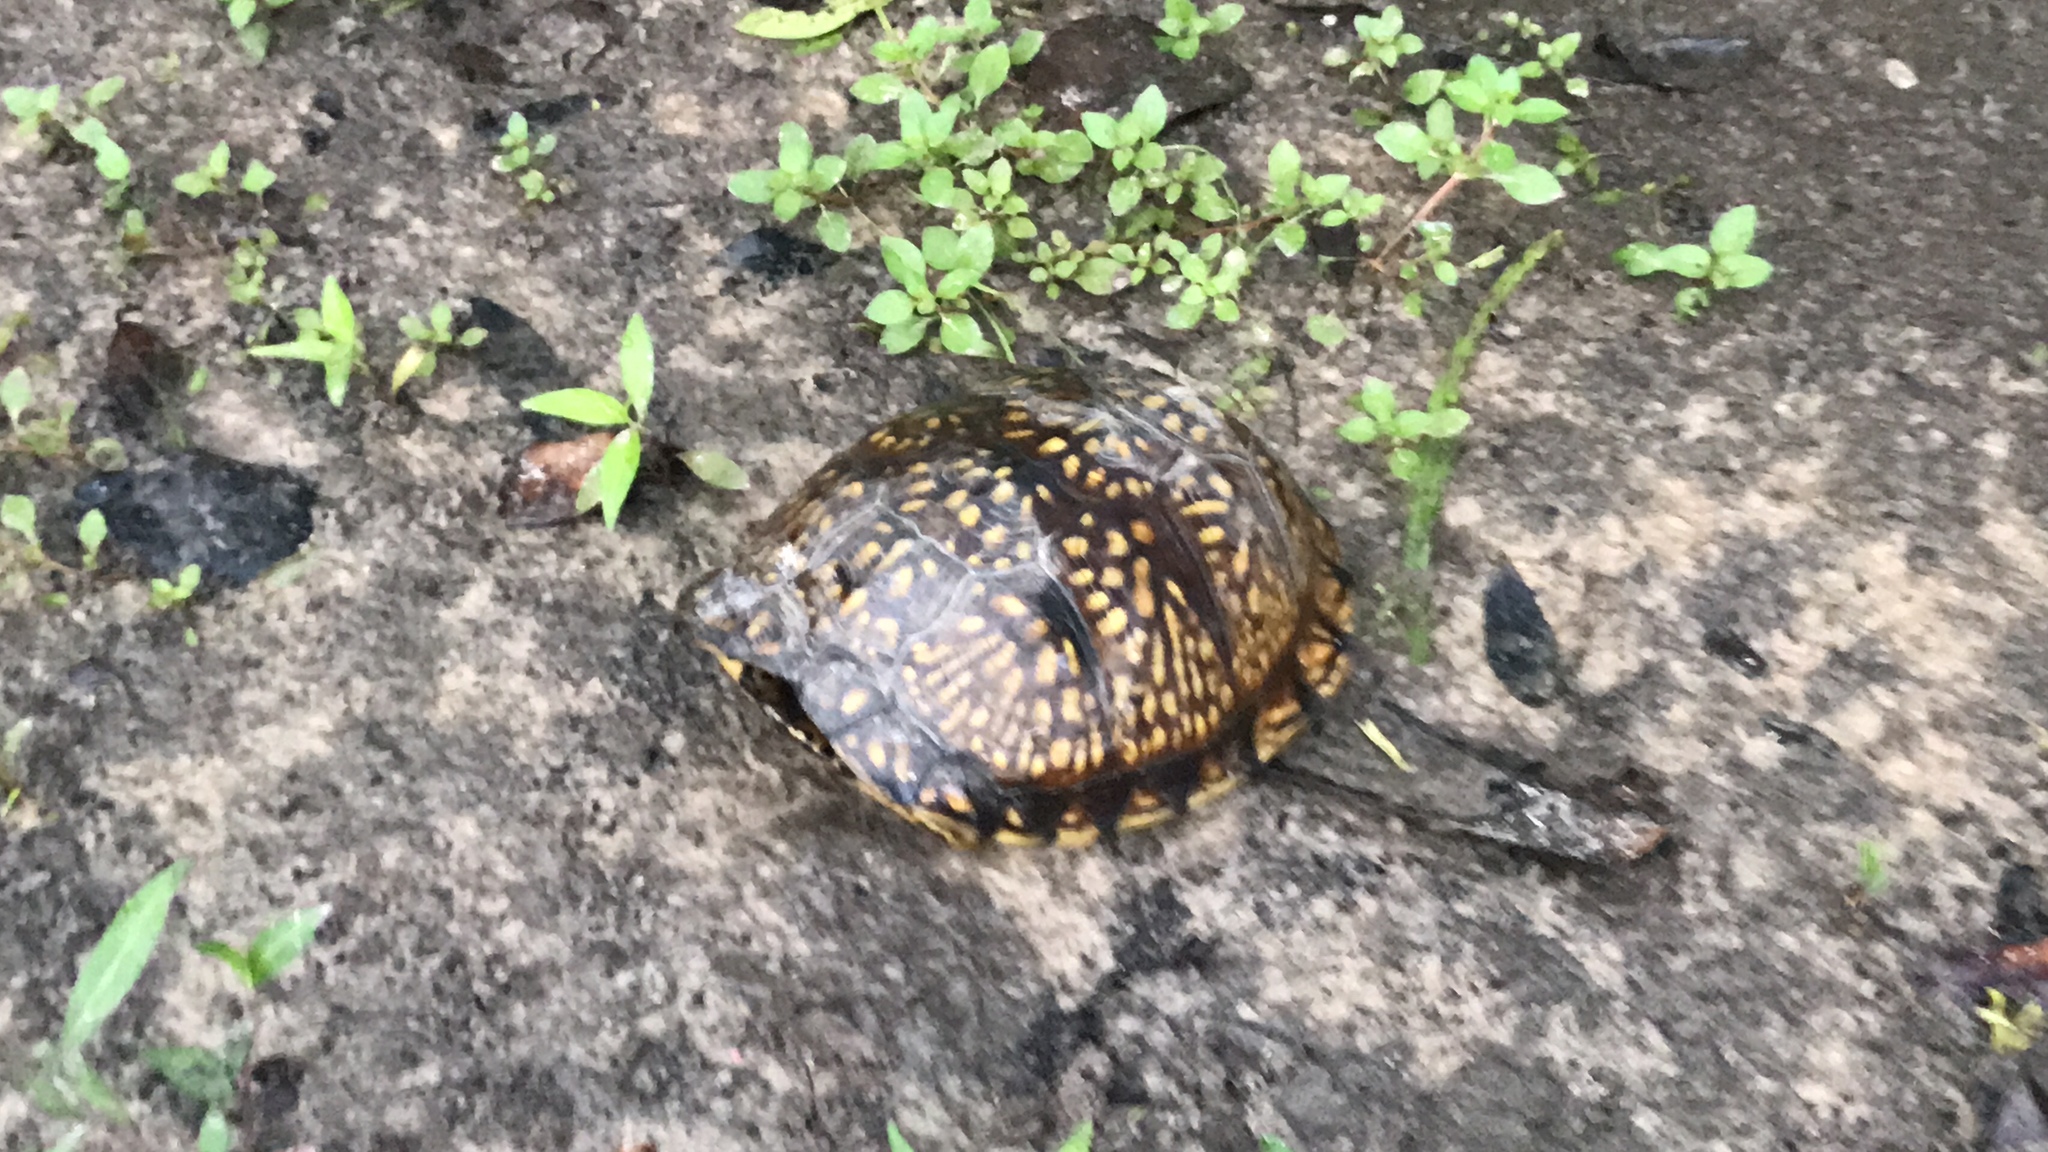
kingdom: Animalia
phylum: Chordata
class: Testudines
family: Emydidae
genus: Terrapene
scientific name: Terrapene carolina
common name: Common box turtle
